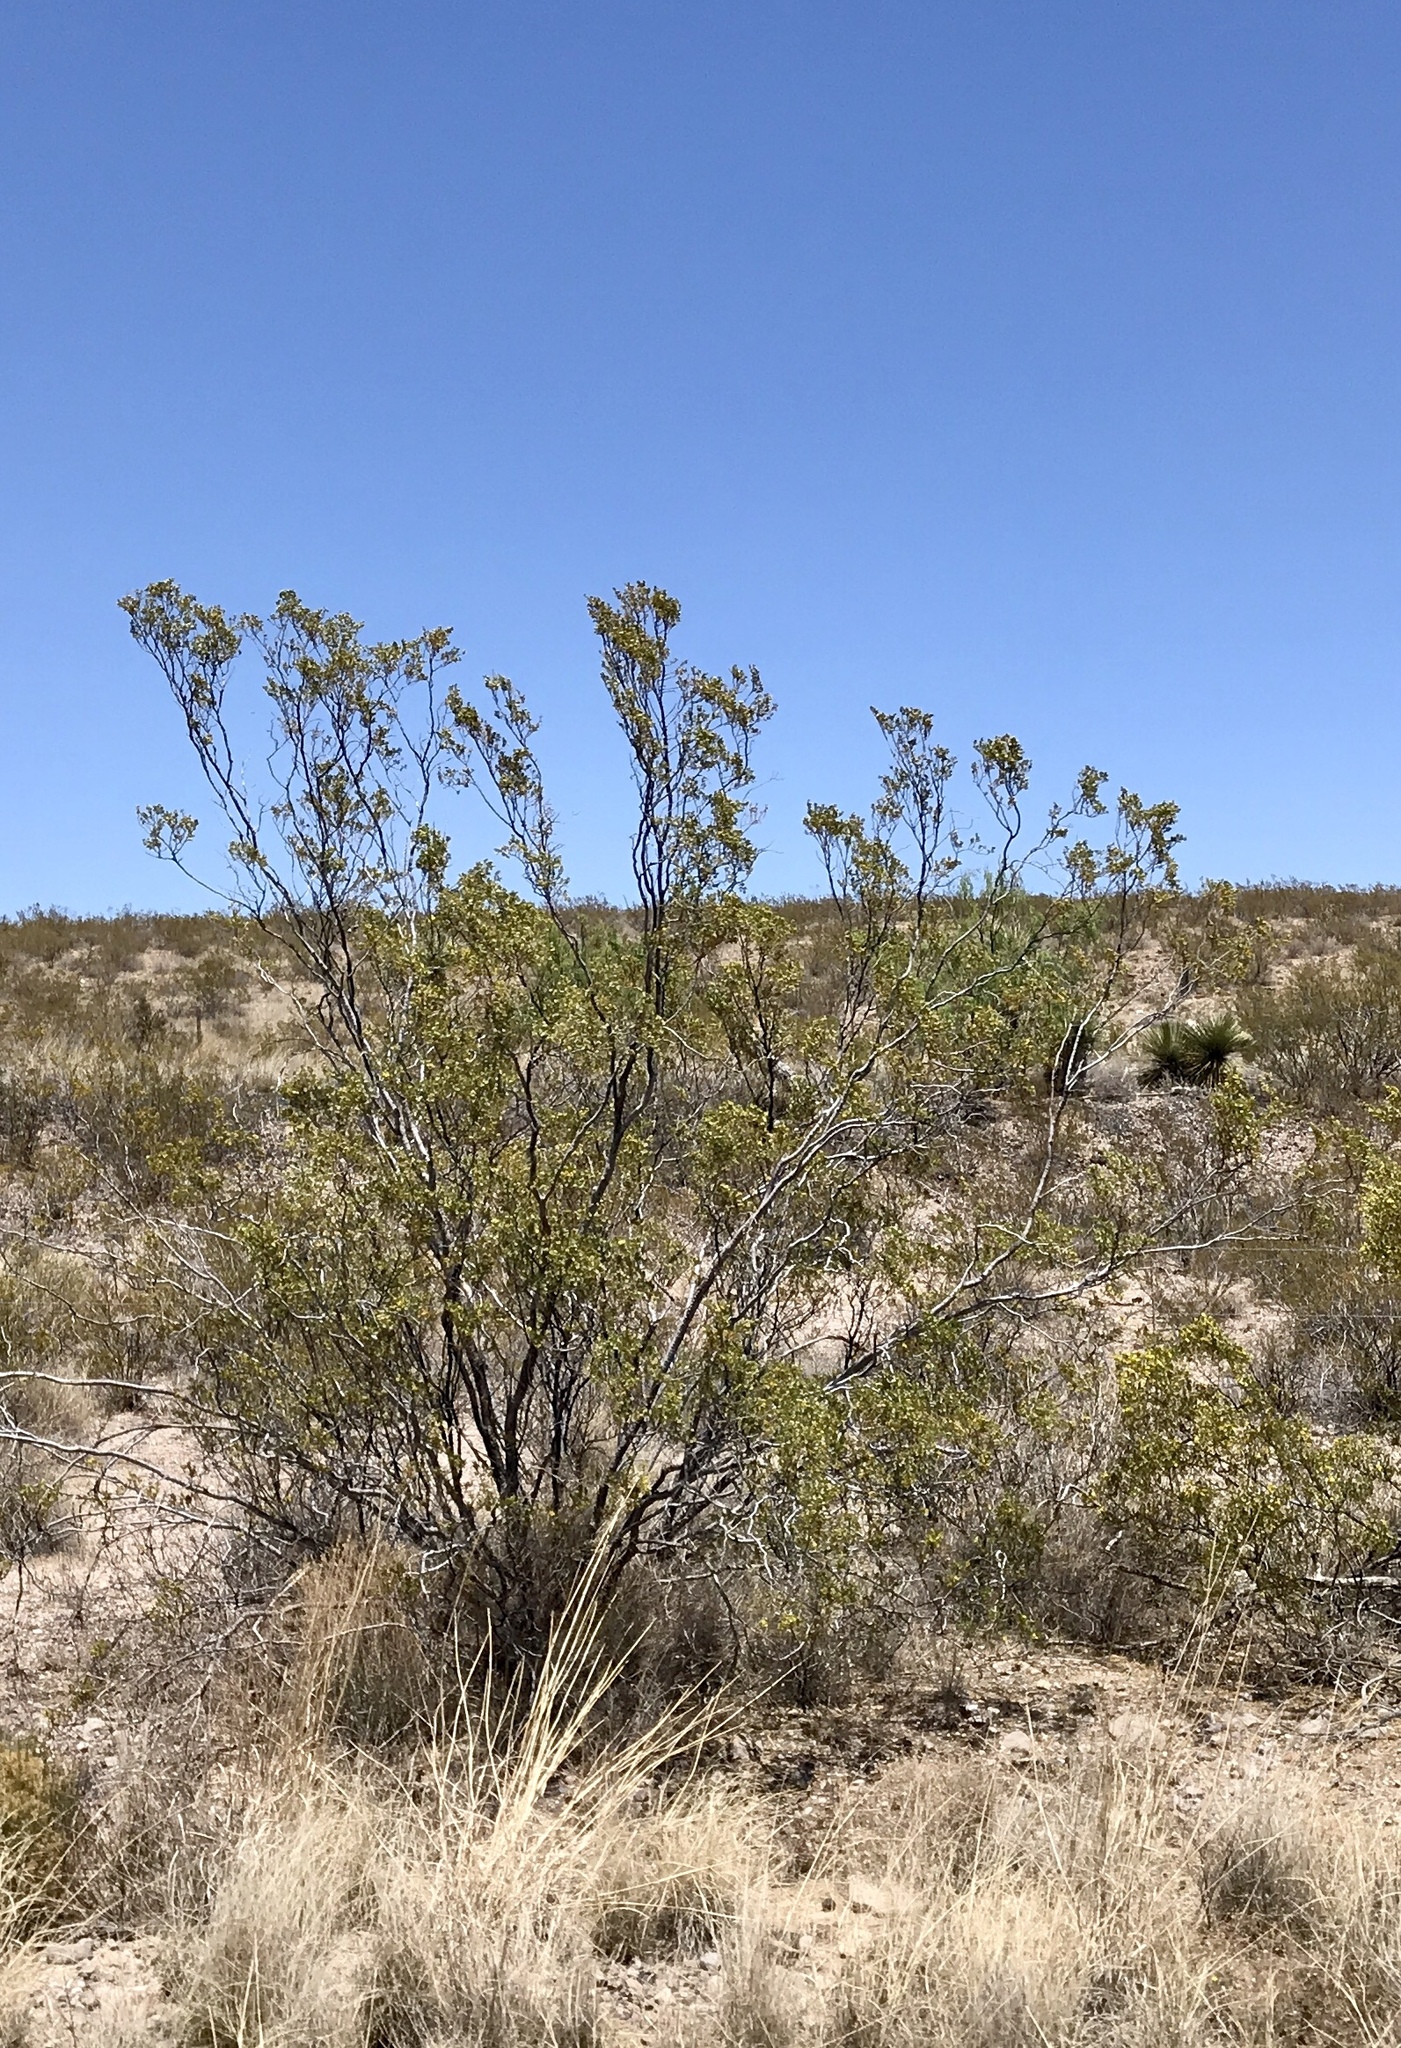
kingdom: Plantae
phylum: Tracheophyta
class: Magnoliopsida
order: Zygophyllales
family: Zygophyllaceae
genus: Larrea
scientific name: Larrea tridentata
